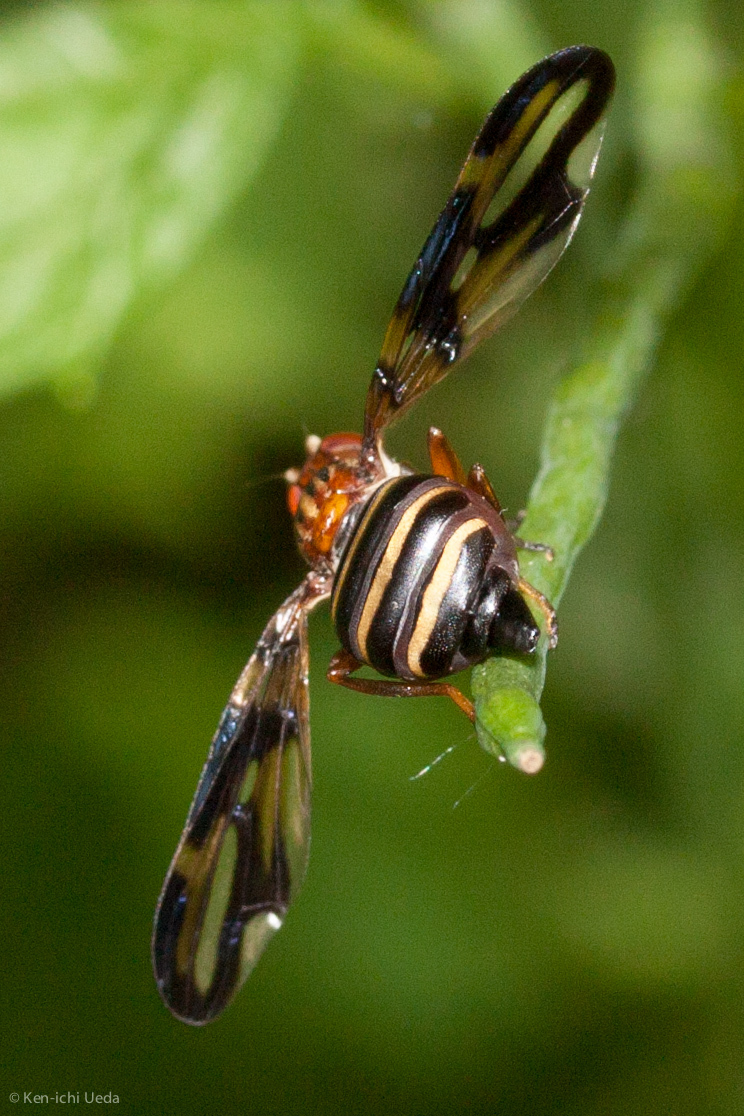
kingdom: Animalia
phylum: Arthropoda
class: Insecta
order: Diptera
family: Ulidiidae
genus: Idana
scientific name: Idana marginata
